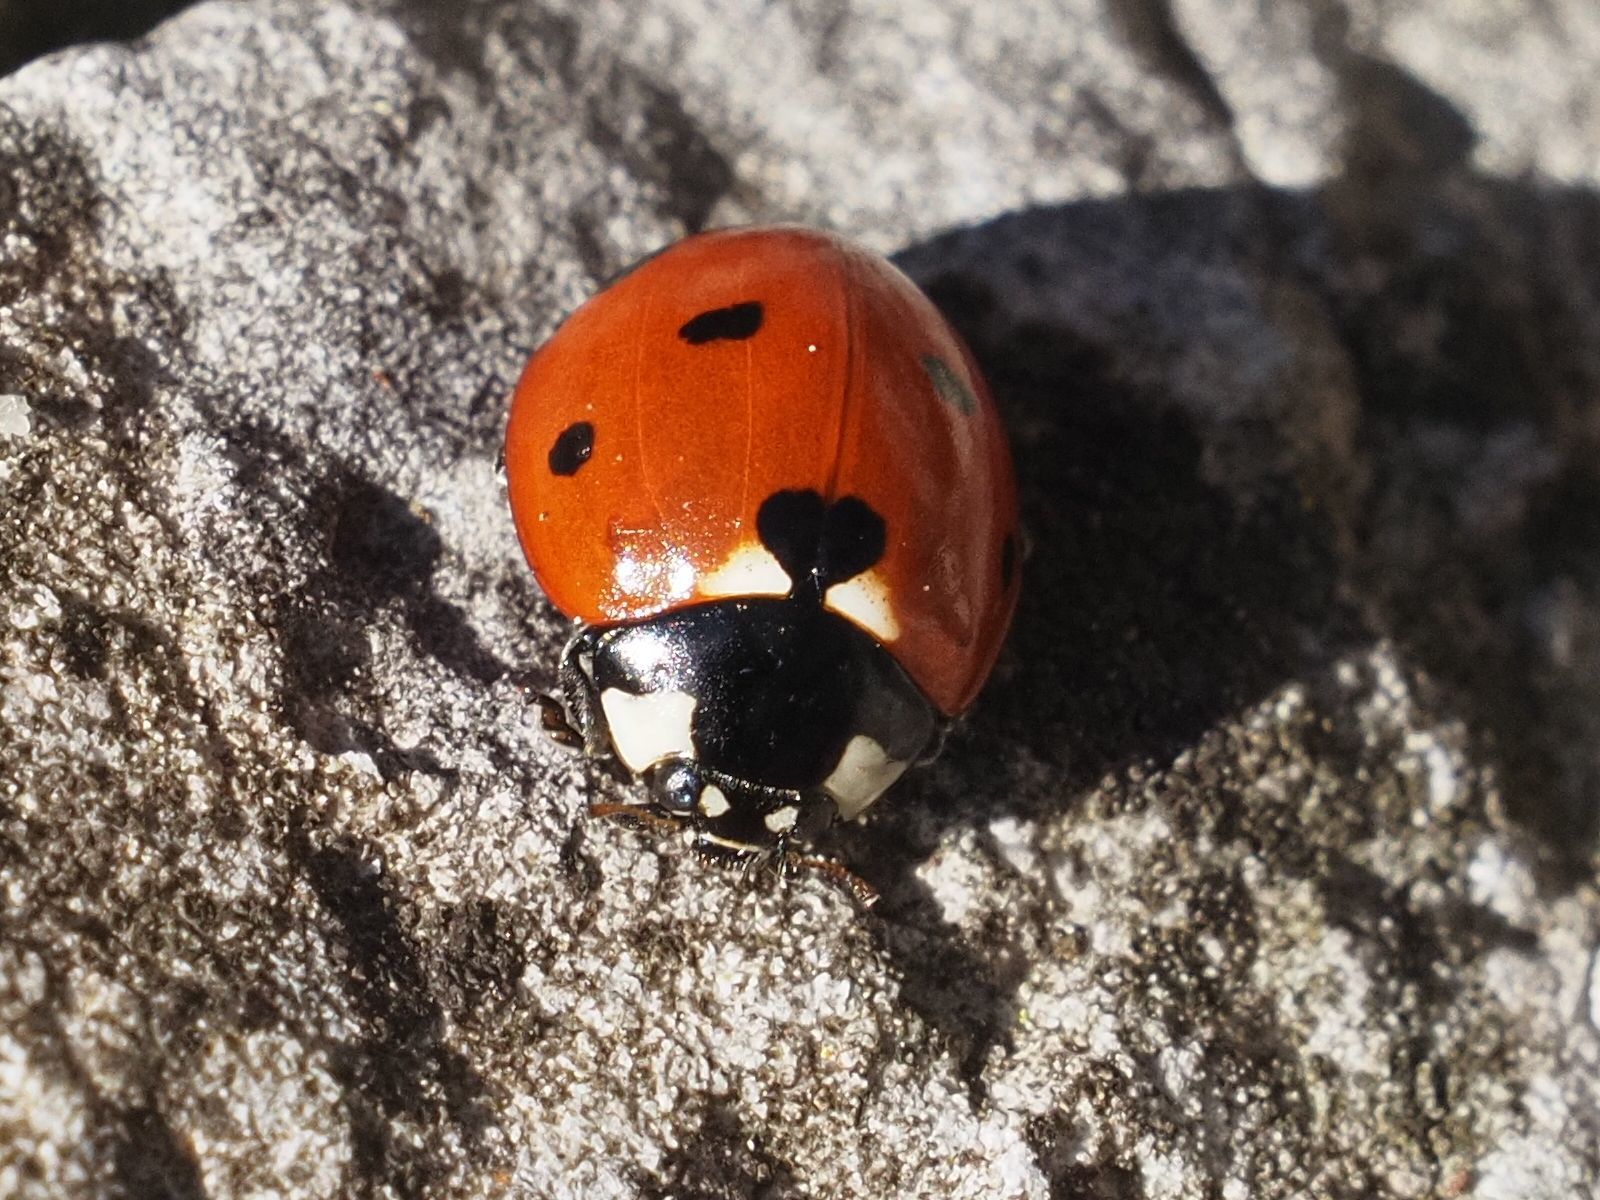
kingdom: Animalia
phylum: Arthropoda
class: Insecta
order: Coleoptera
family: Coccinellidae
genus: Coccinella
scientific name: Coccinella septempunctata
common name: Sevenspotted lady beetle
